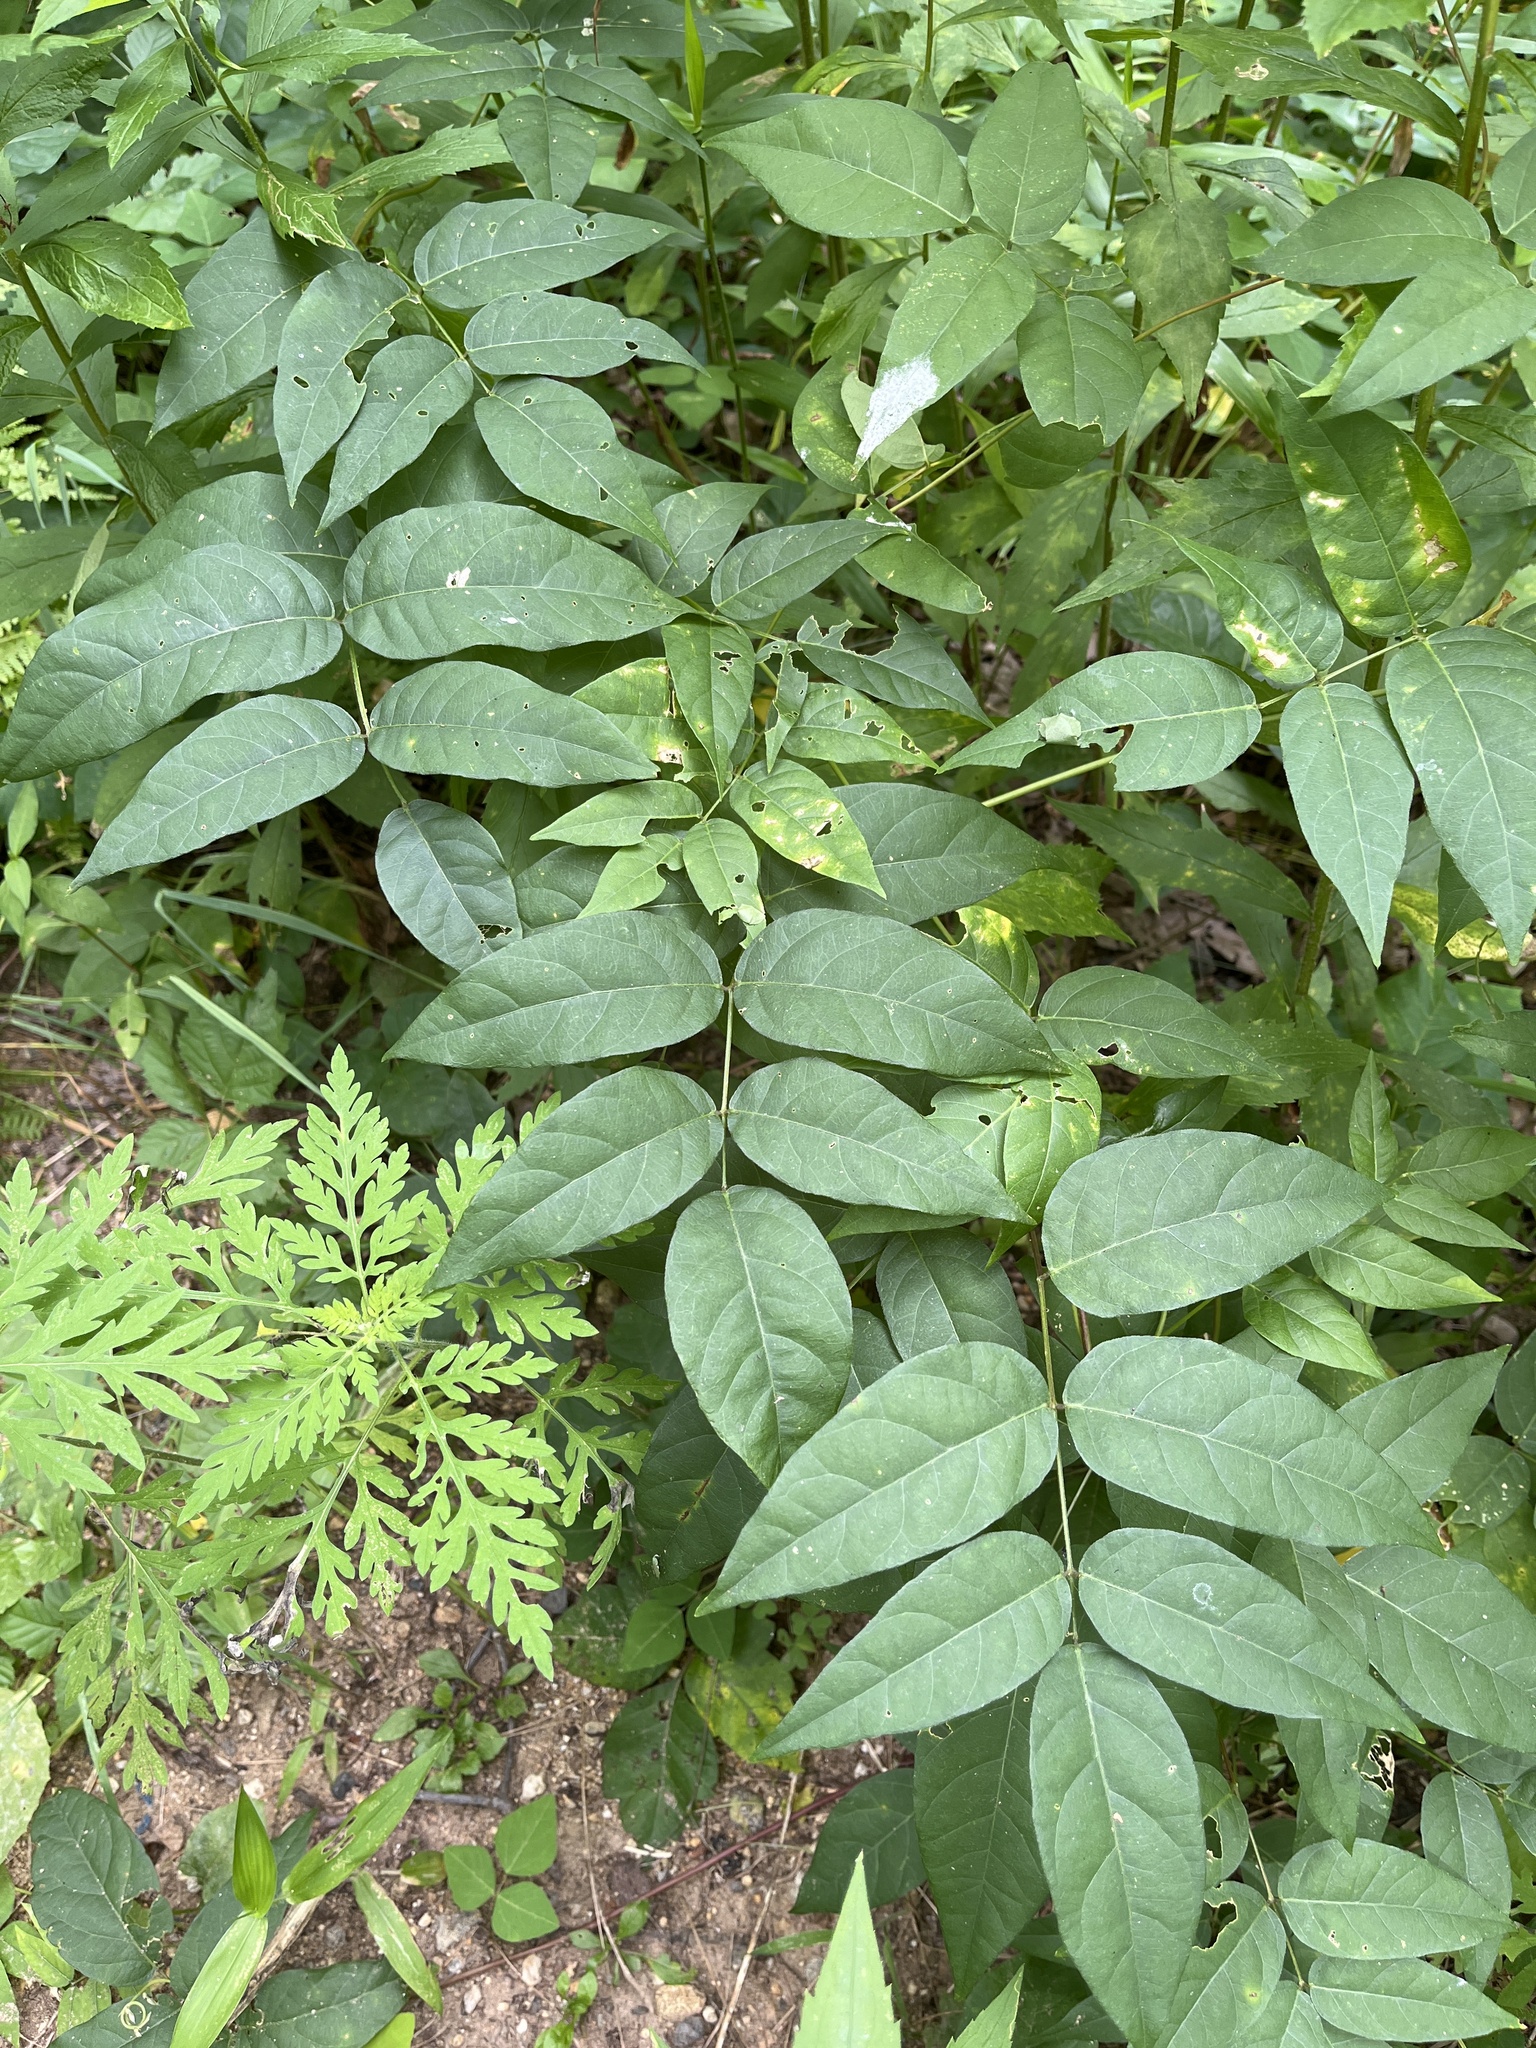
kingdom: Plantae
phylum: Tracheophyta
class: Magnoliopsida
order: Fabales
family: Fabaceae
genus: Apios
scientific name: Apios americana
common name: American potato-bean
